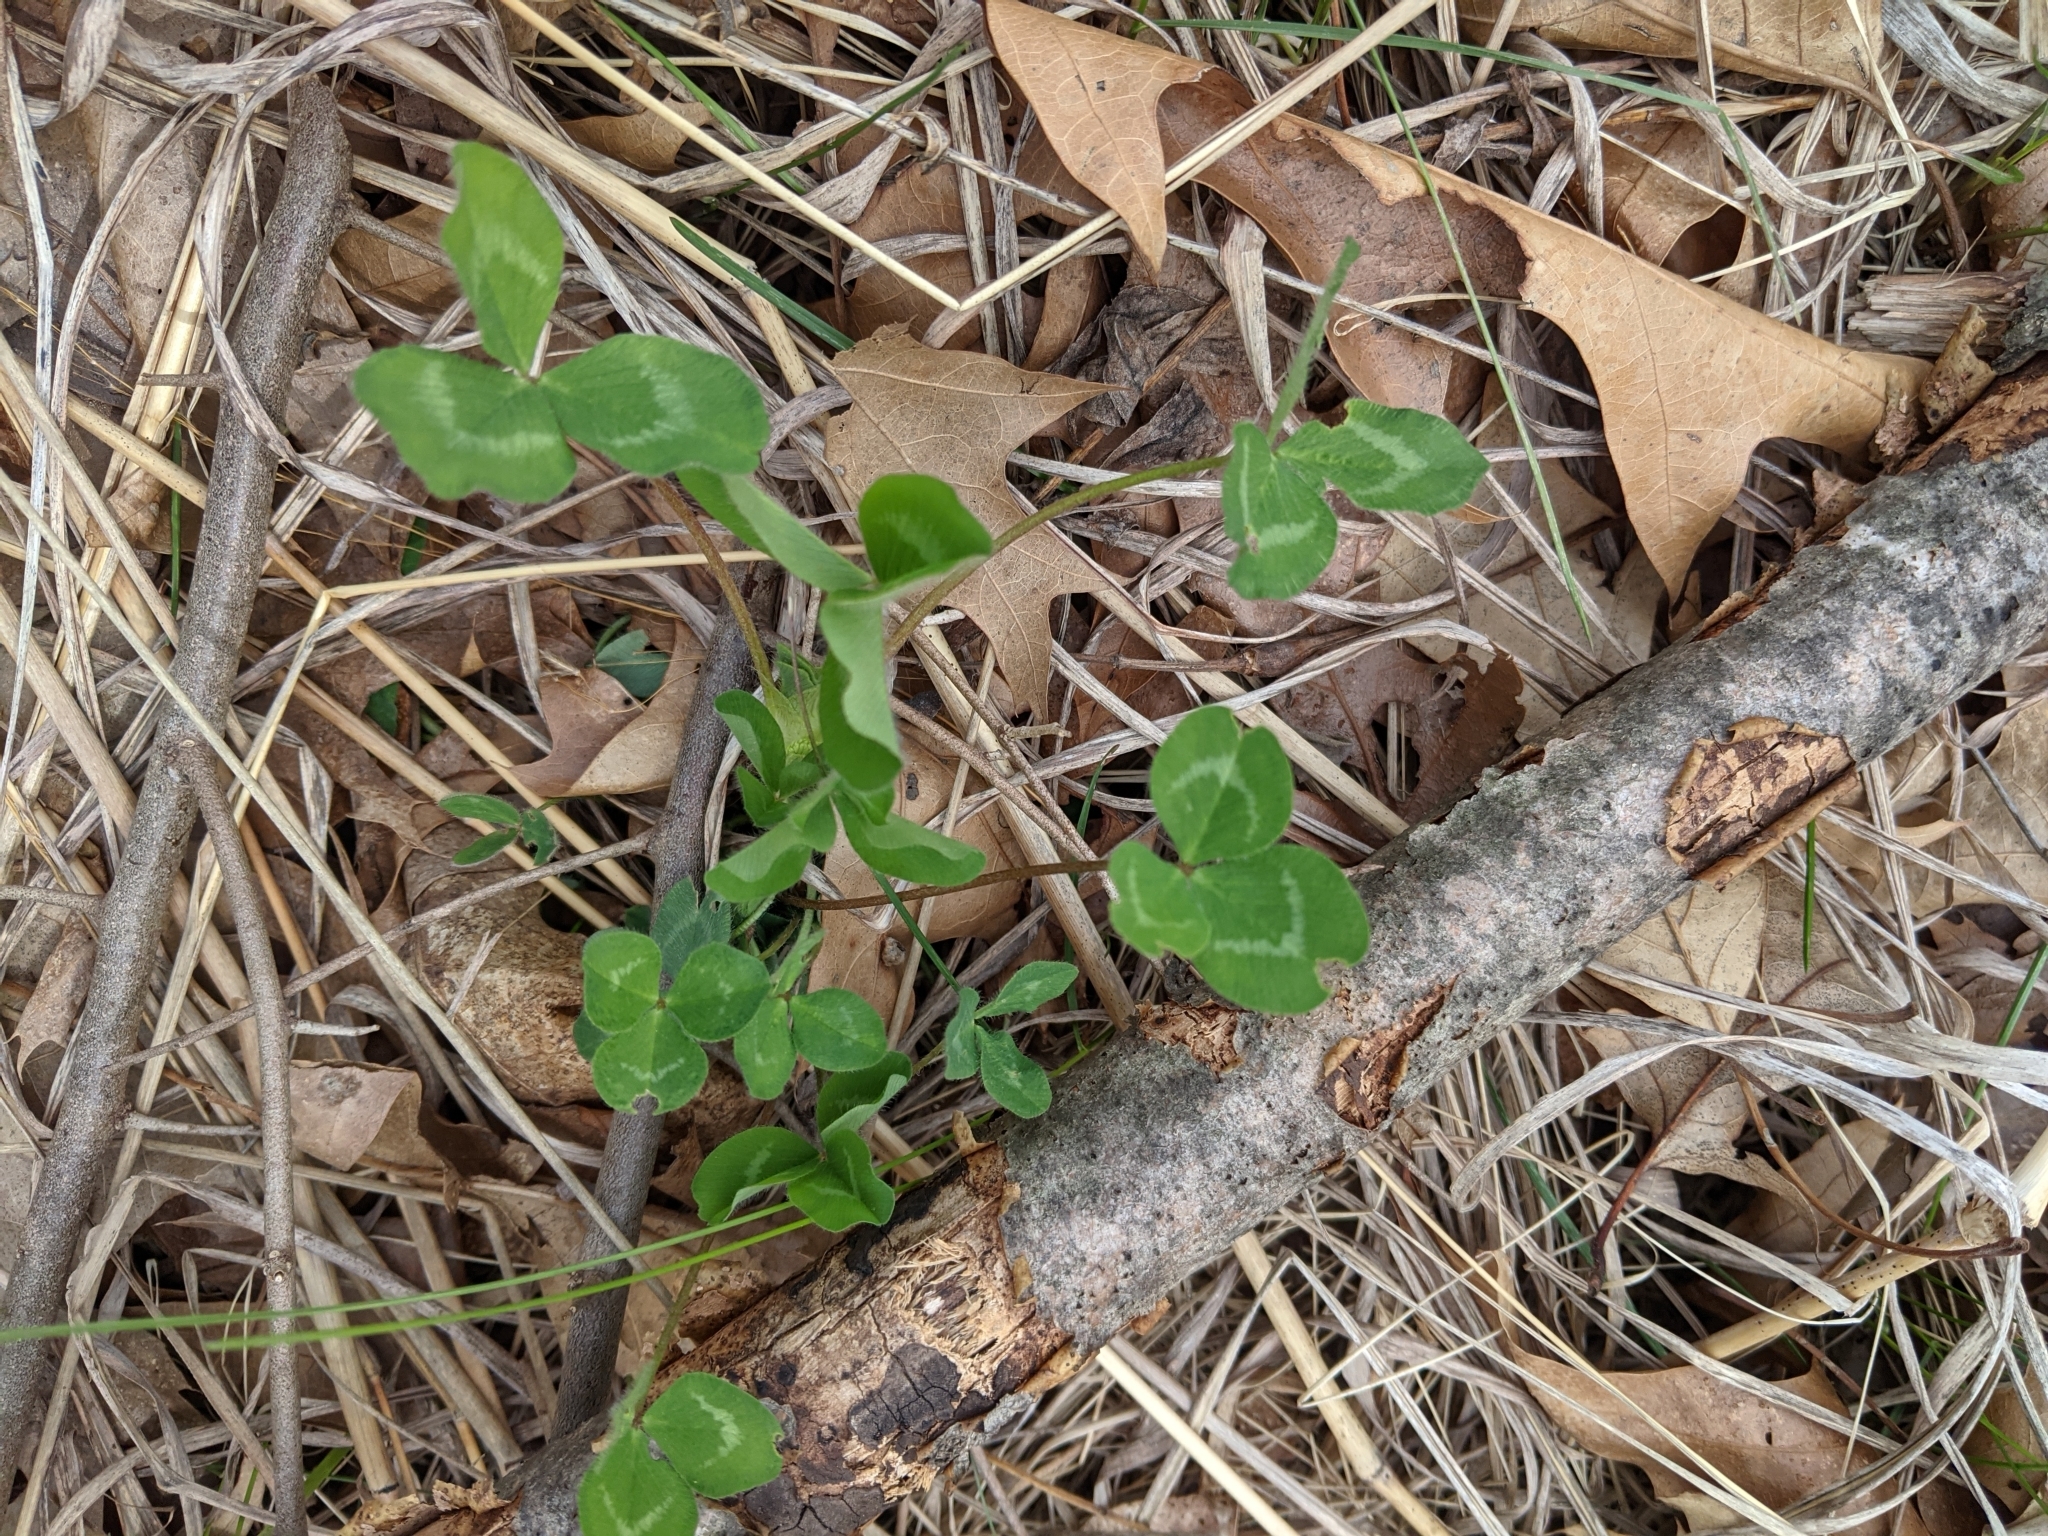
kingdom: Plantae
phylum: Tracheophyta
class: Magnoliopsida
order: Fabales
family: Fabaceae
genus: Trifolium
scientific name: Trifolium repens
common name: White clover
